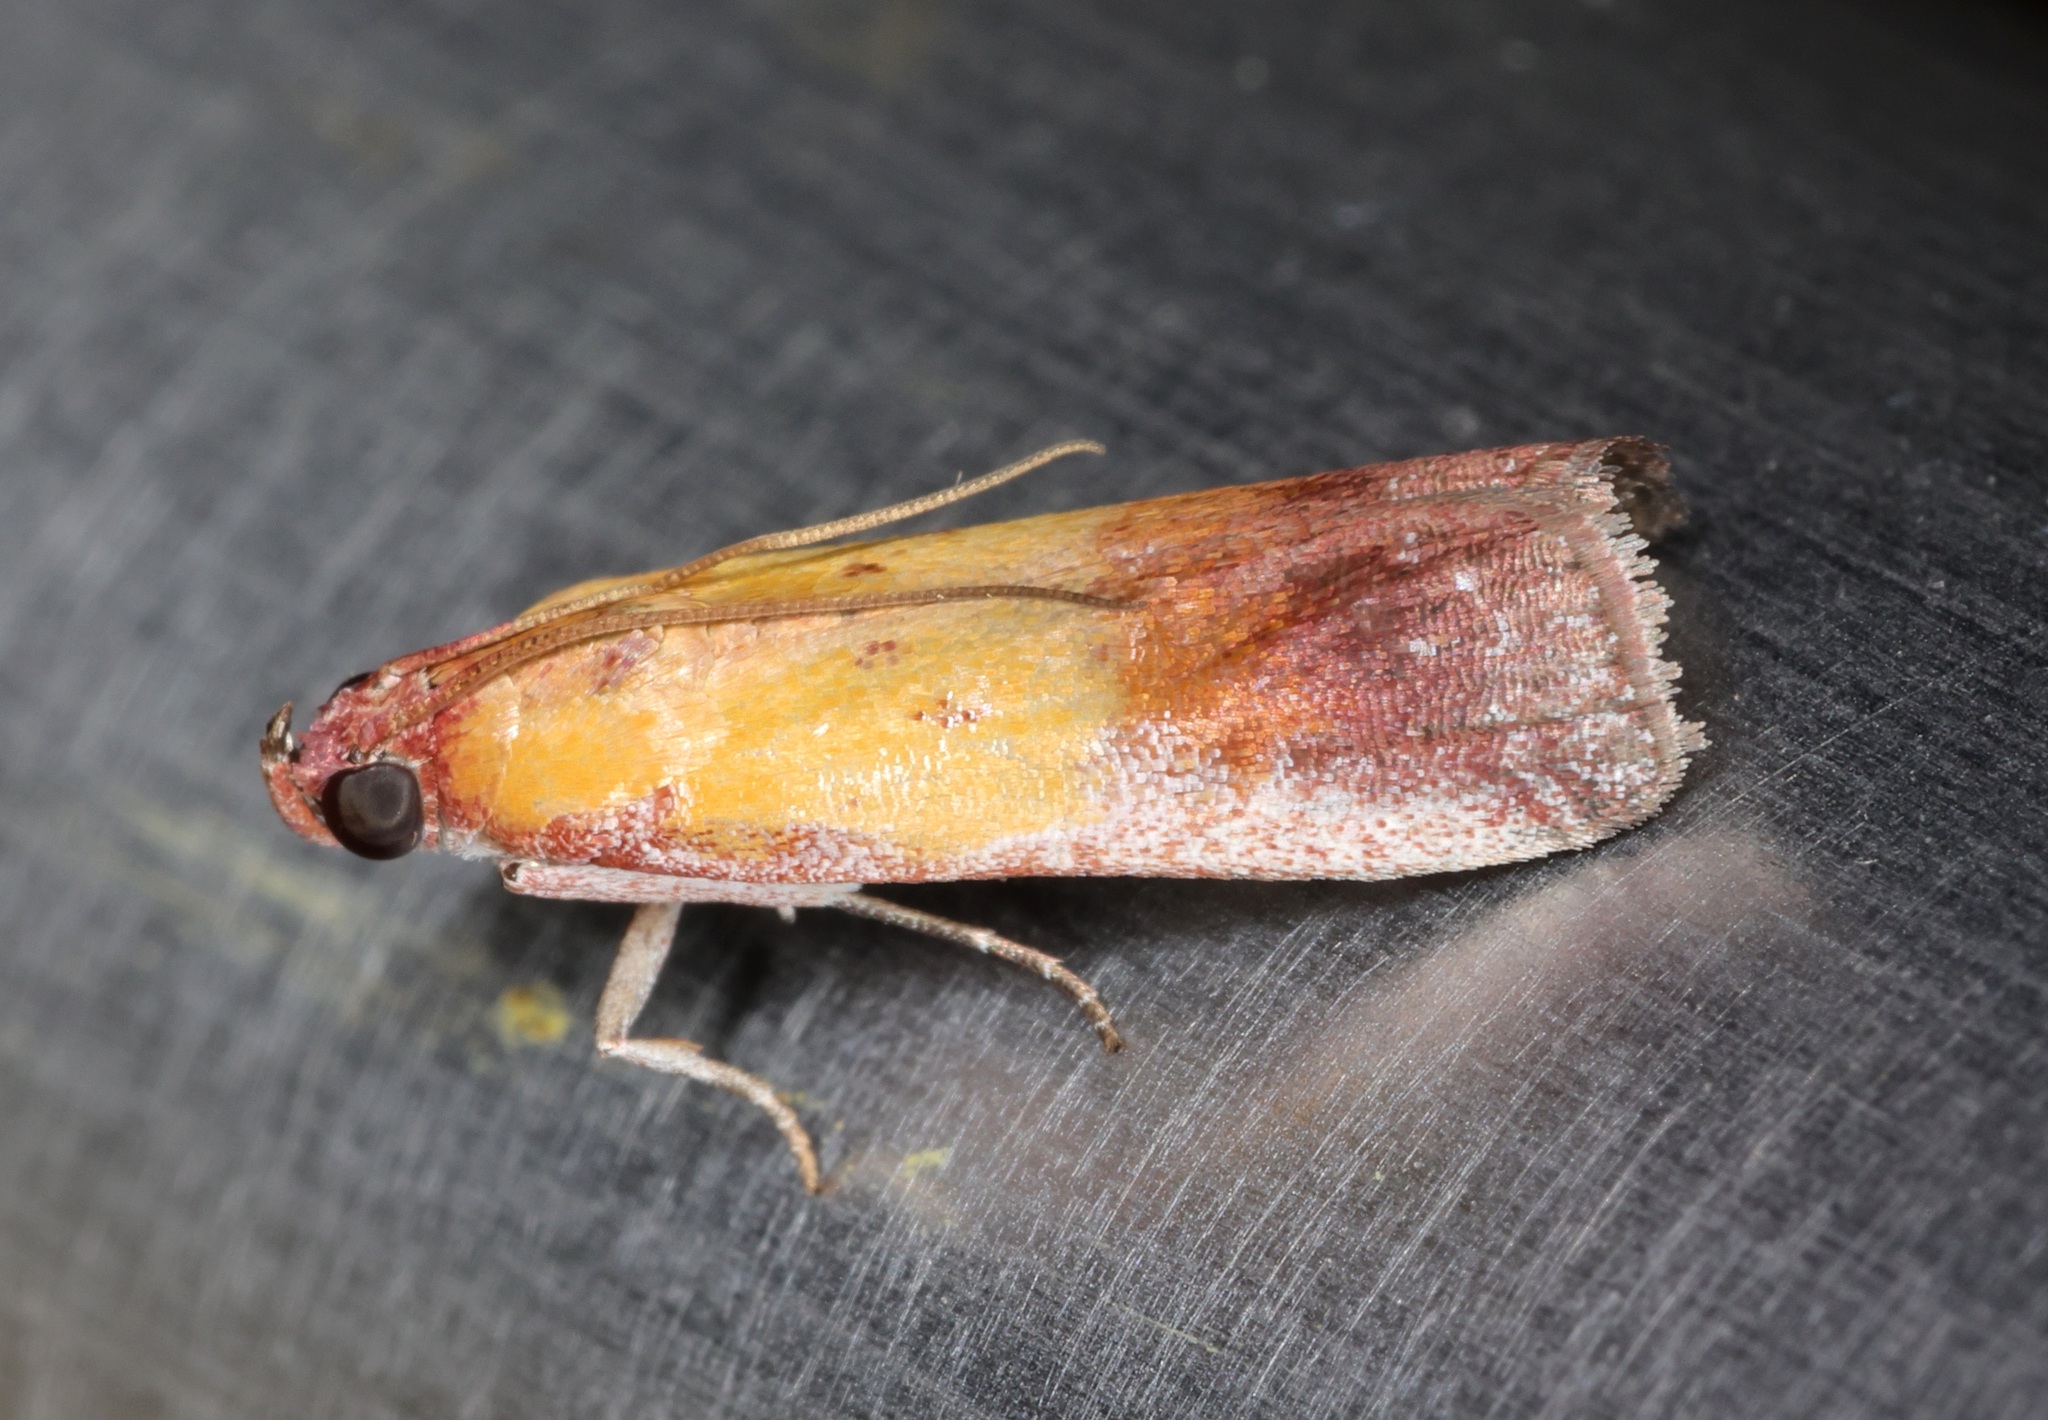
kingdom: Animalia
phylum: Arthropoda
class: Insecta
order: Lepidoptera
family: Pyralidae
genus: Piesmopoda
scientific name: Piesmopoda
